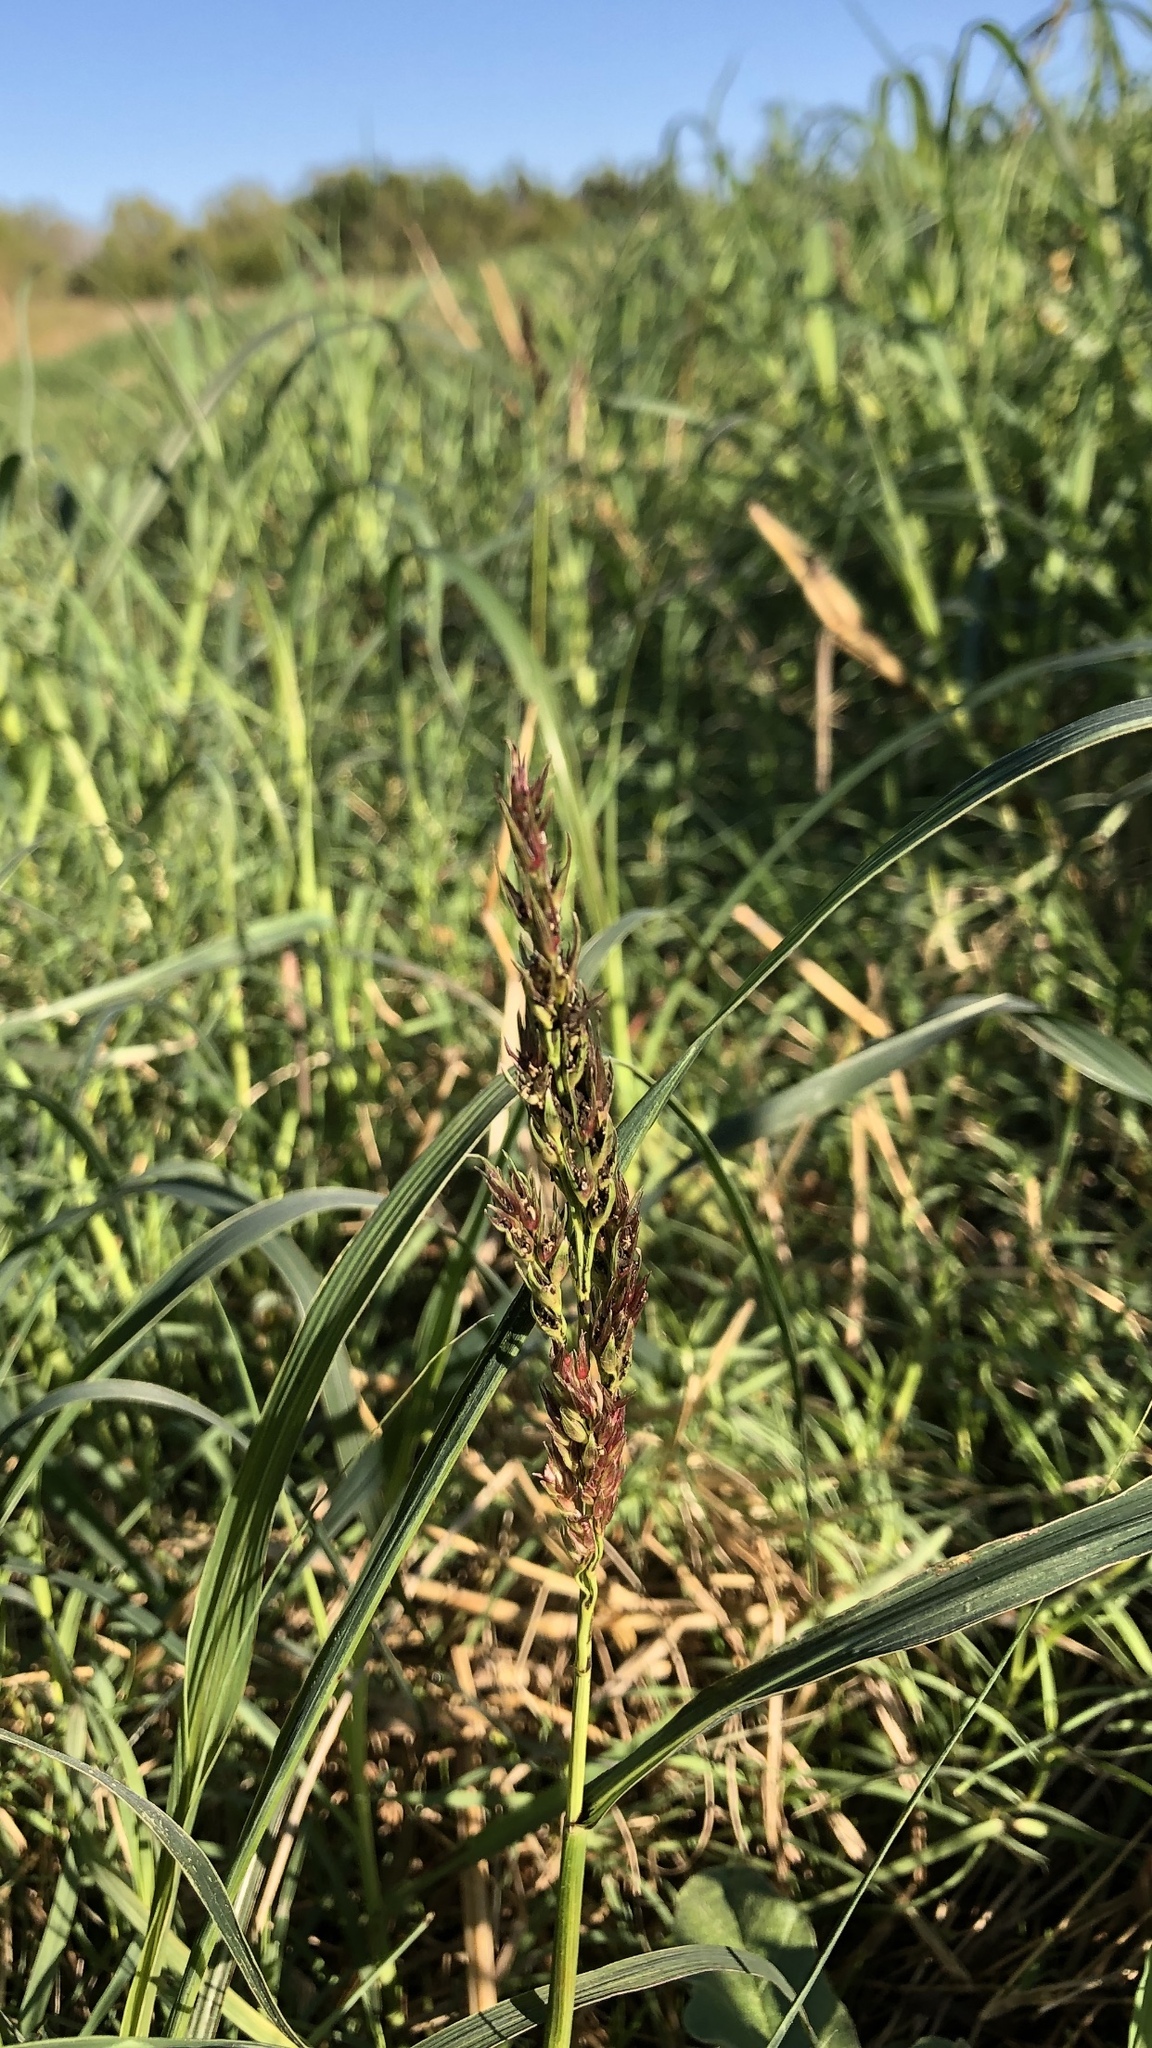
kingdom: Plantae
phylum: Tracheophyta
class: Liliopsida
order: Poales
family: Poaceae
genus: Sorghum
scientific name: Sorghum halepense
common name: Johnson-grass
